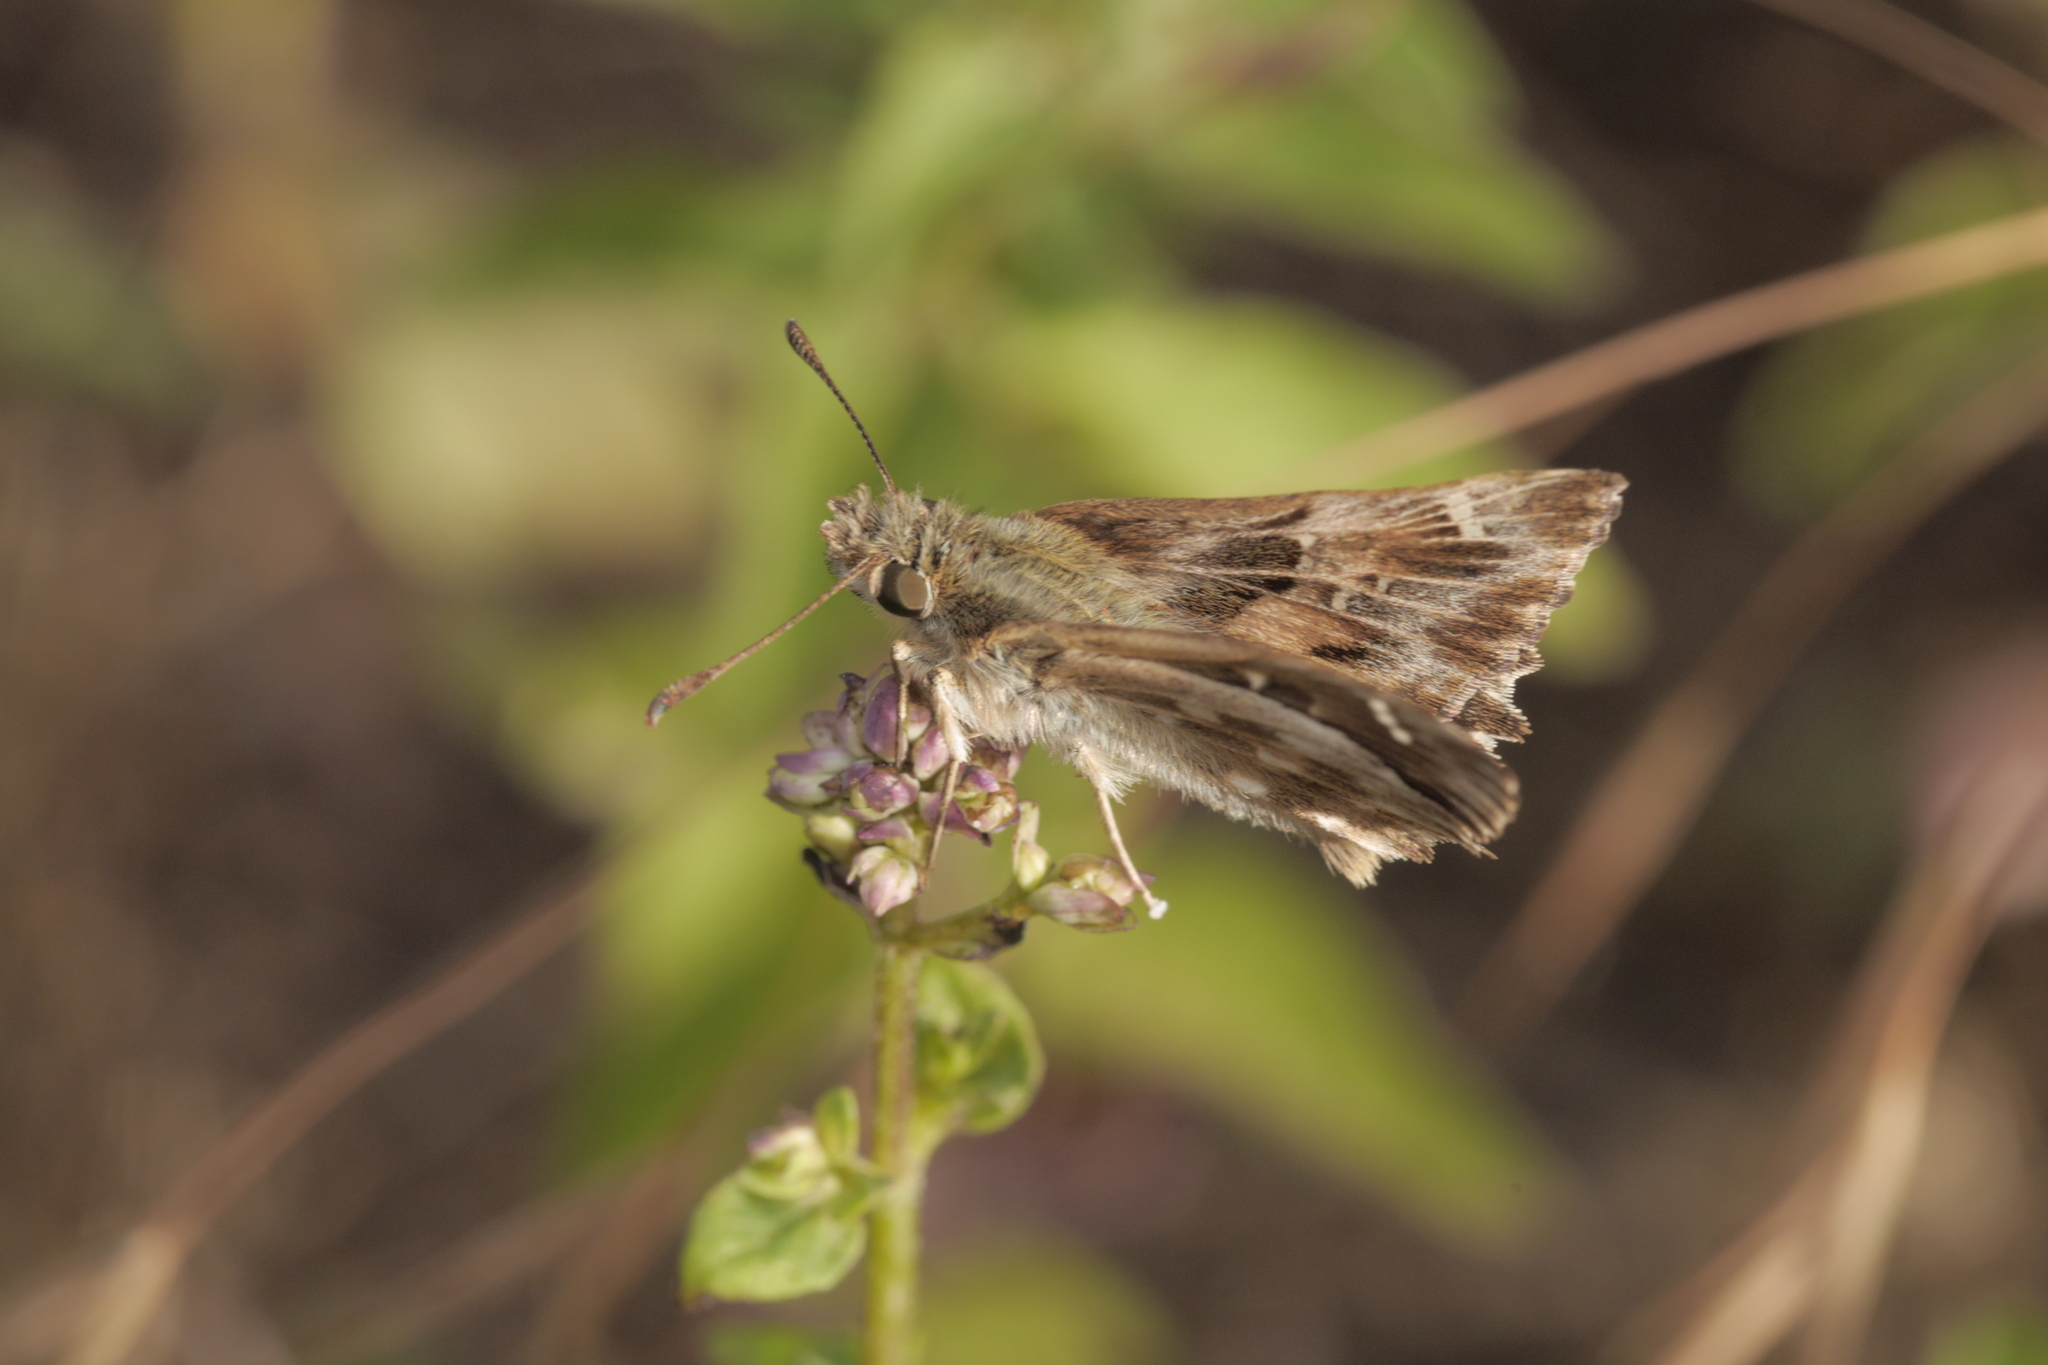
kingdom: Animalia
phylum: Arthropoda
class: Insecta
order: Lepidoptera
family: Hesperiidae
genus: Carcharodus
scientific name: Carcharodus alceae
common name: Mallow skipper
